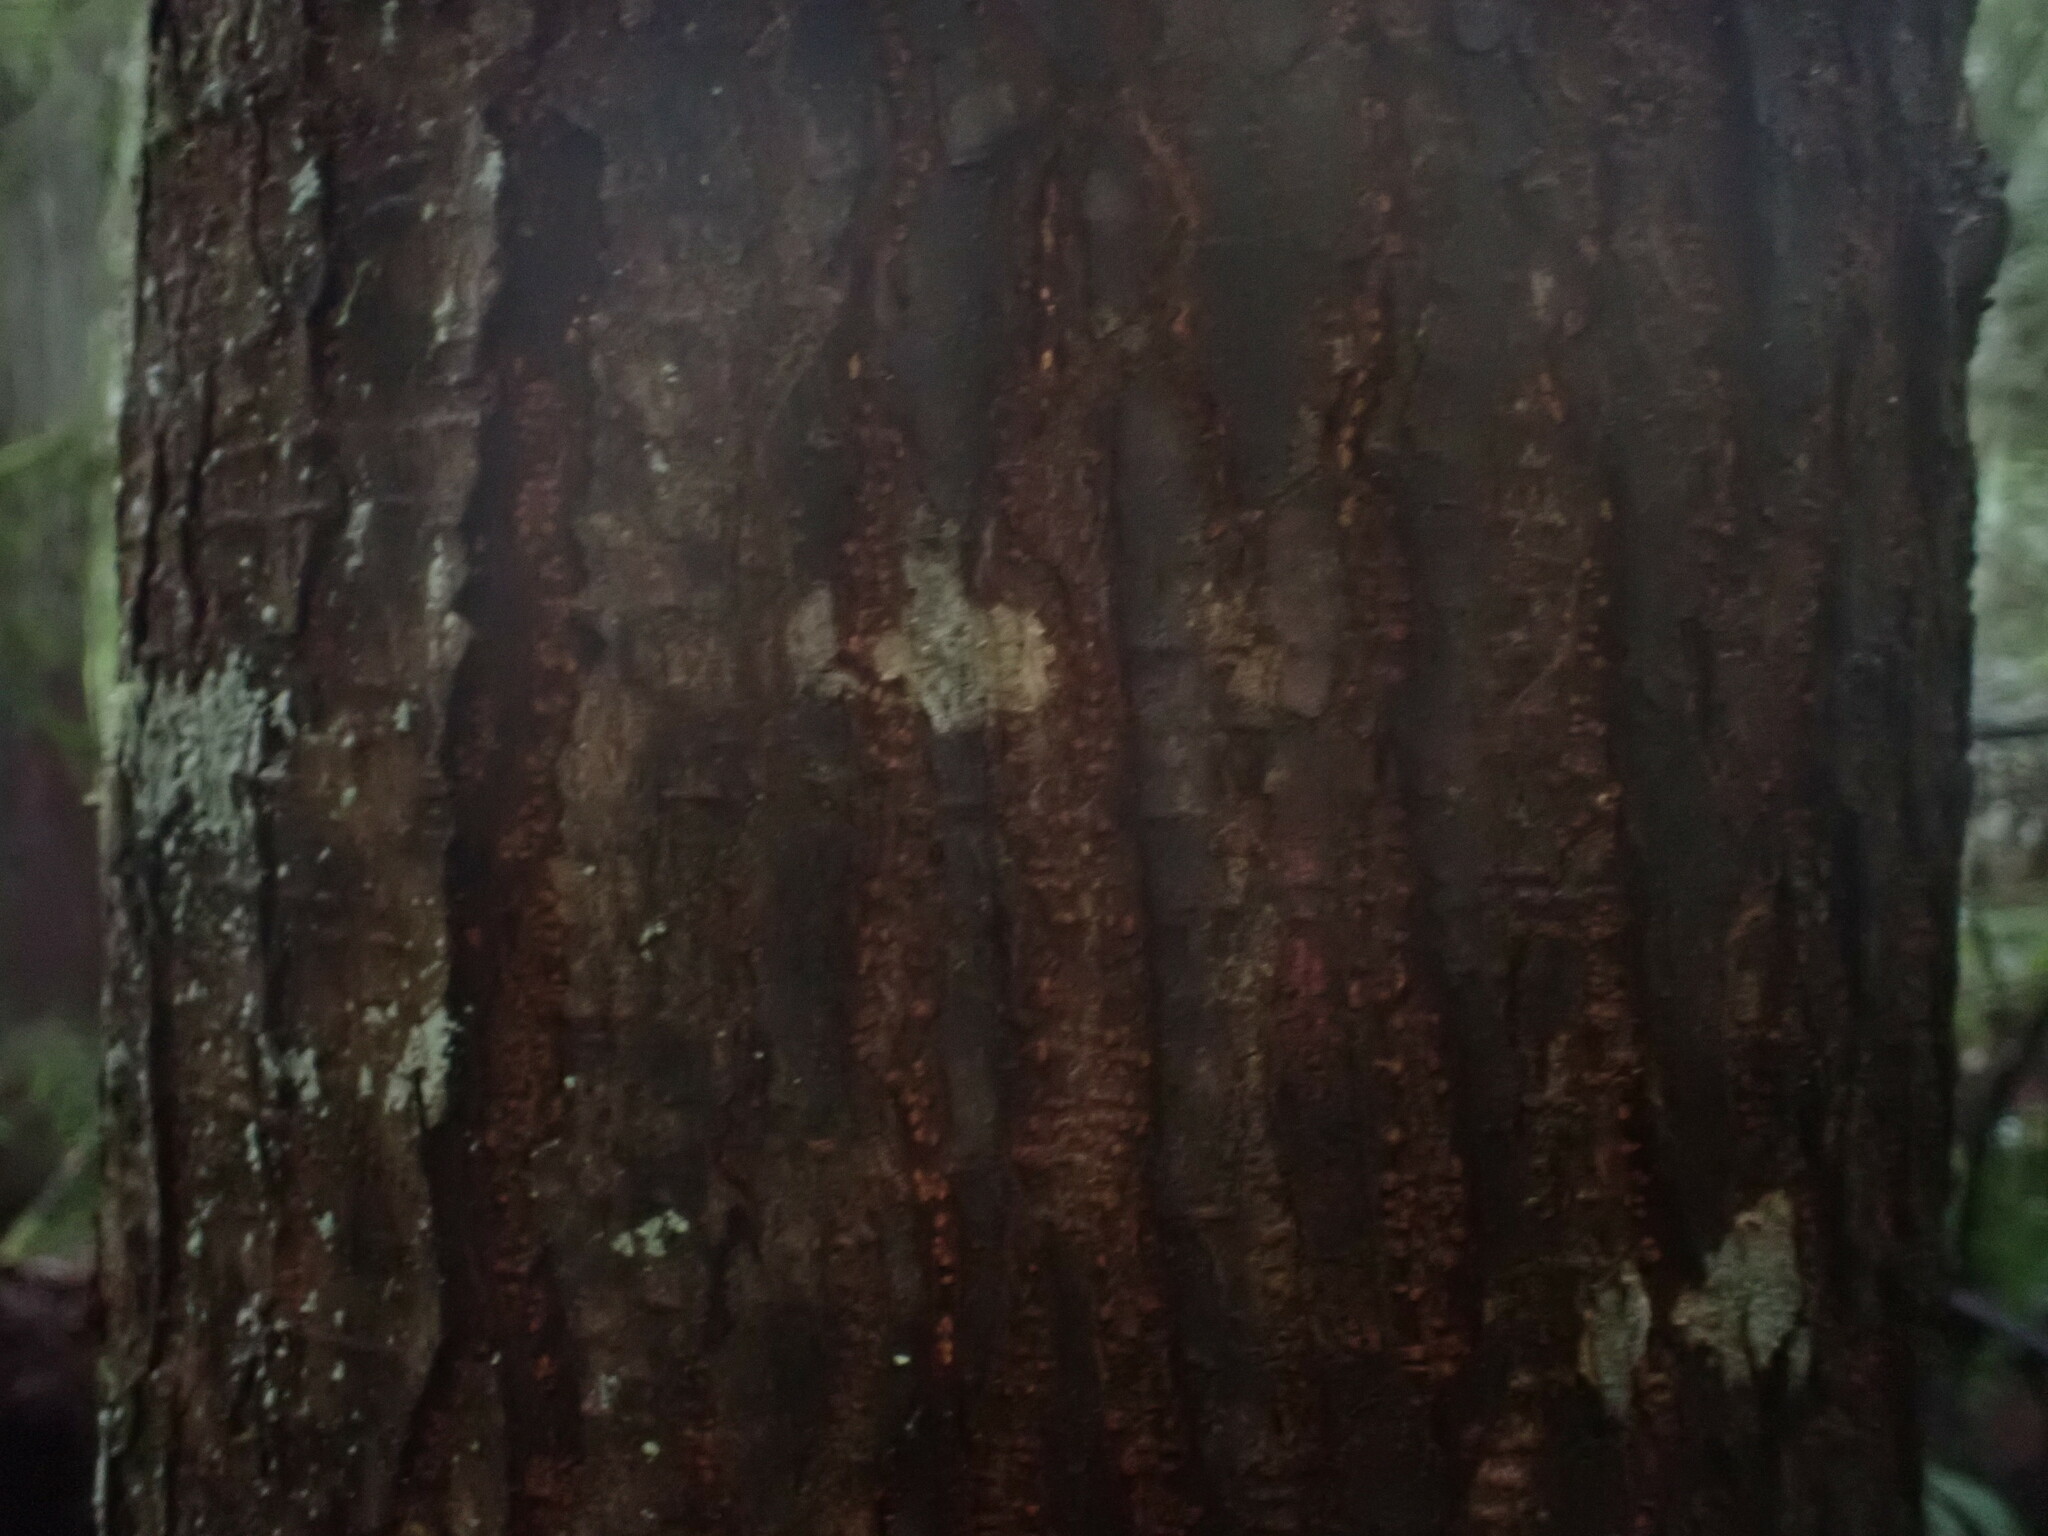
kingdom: Plantae
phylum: Tracheophyta
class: Pinopsida
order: Pinales
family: Pinaceae
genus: Tsuga
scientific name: Tsuga heterophylla
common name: Western hemlock
